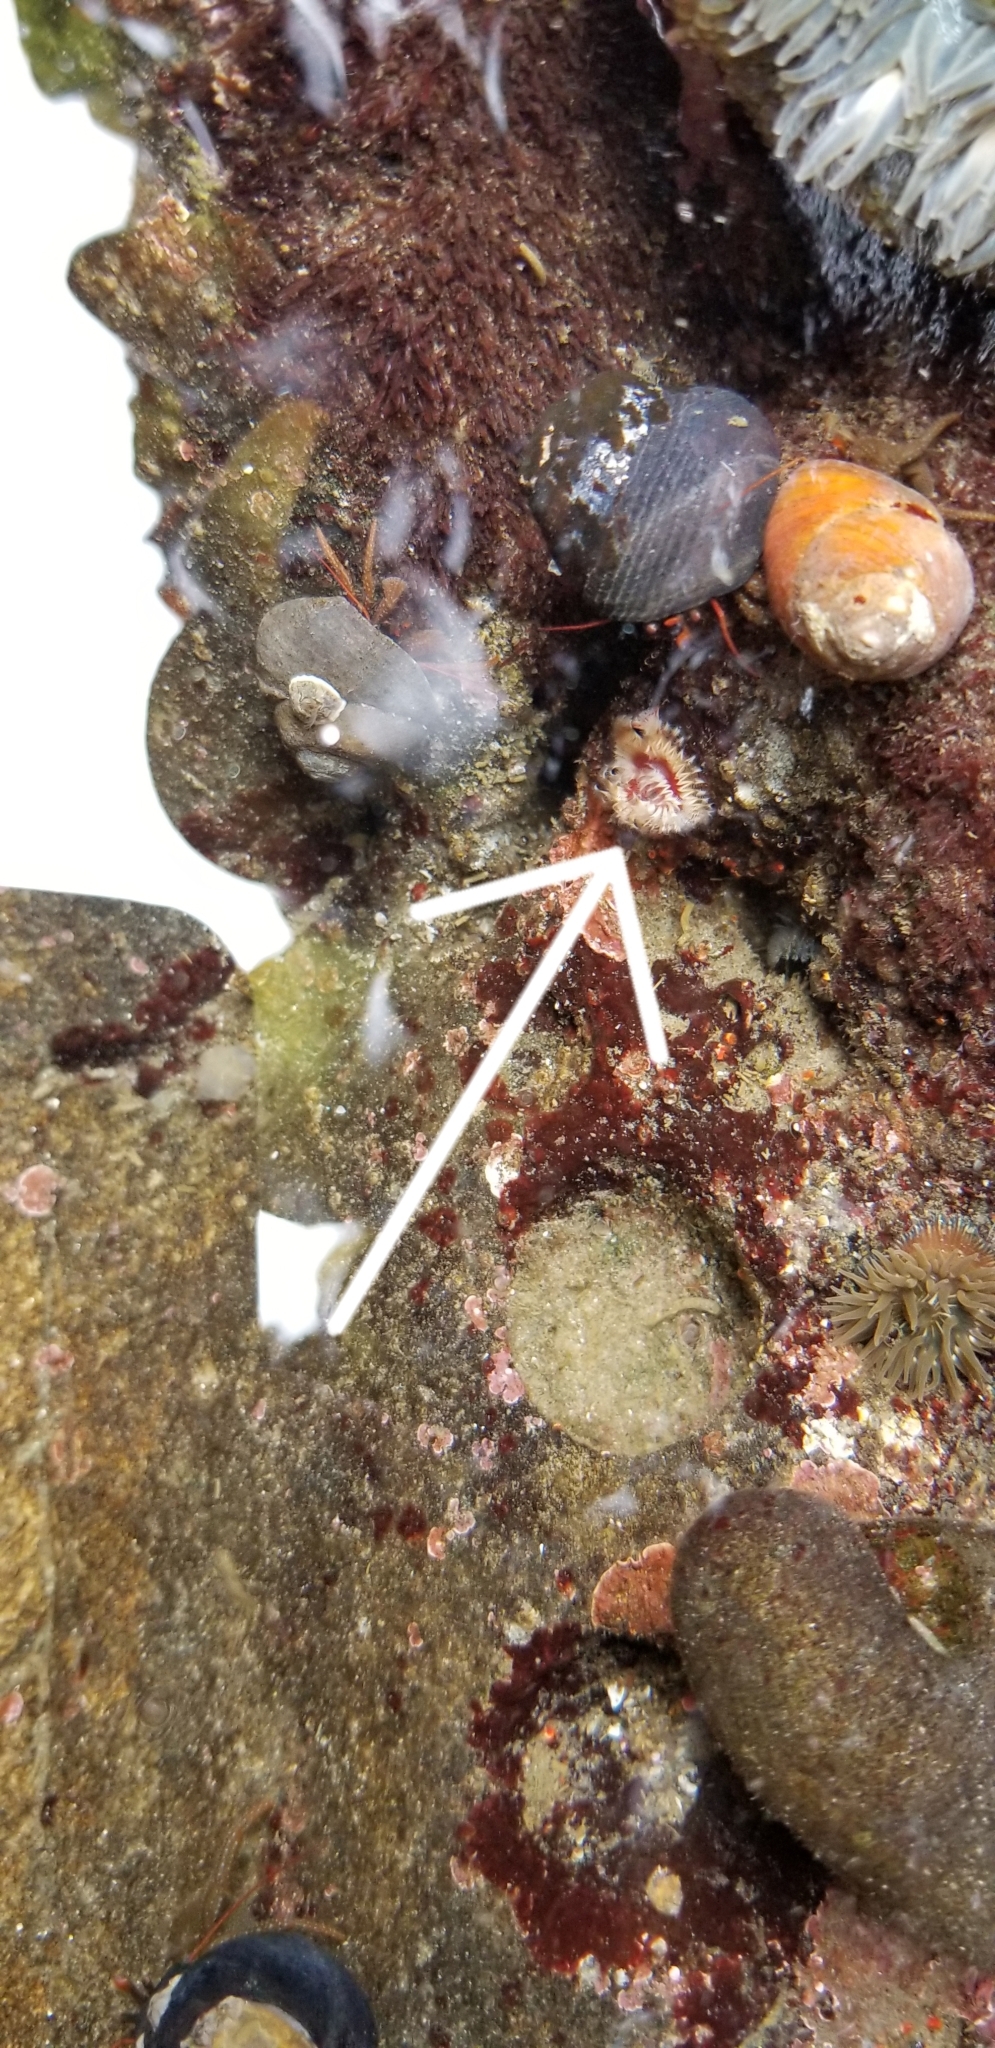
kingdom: Animalia
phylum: Annelida
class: Polychaeta
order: Sabellida
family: Serpulidae
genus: Serpula
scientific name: Serpula columbiana
